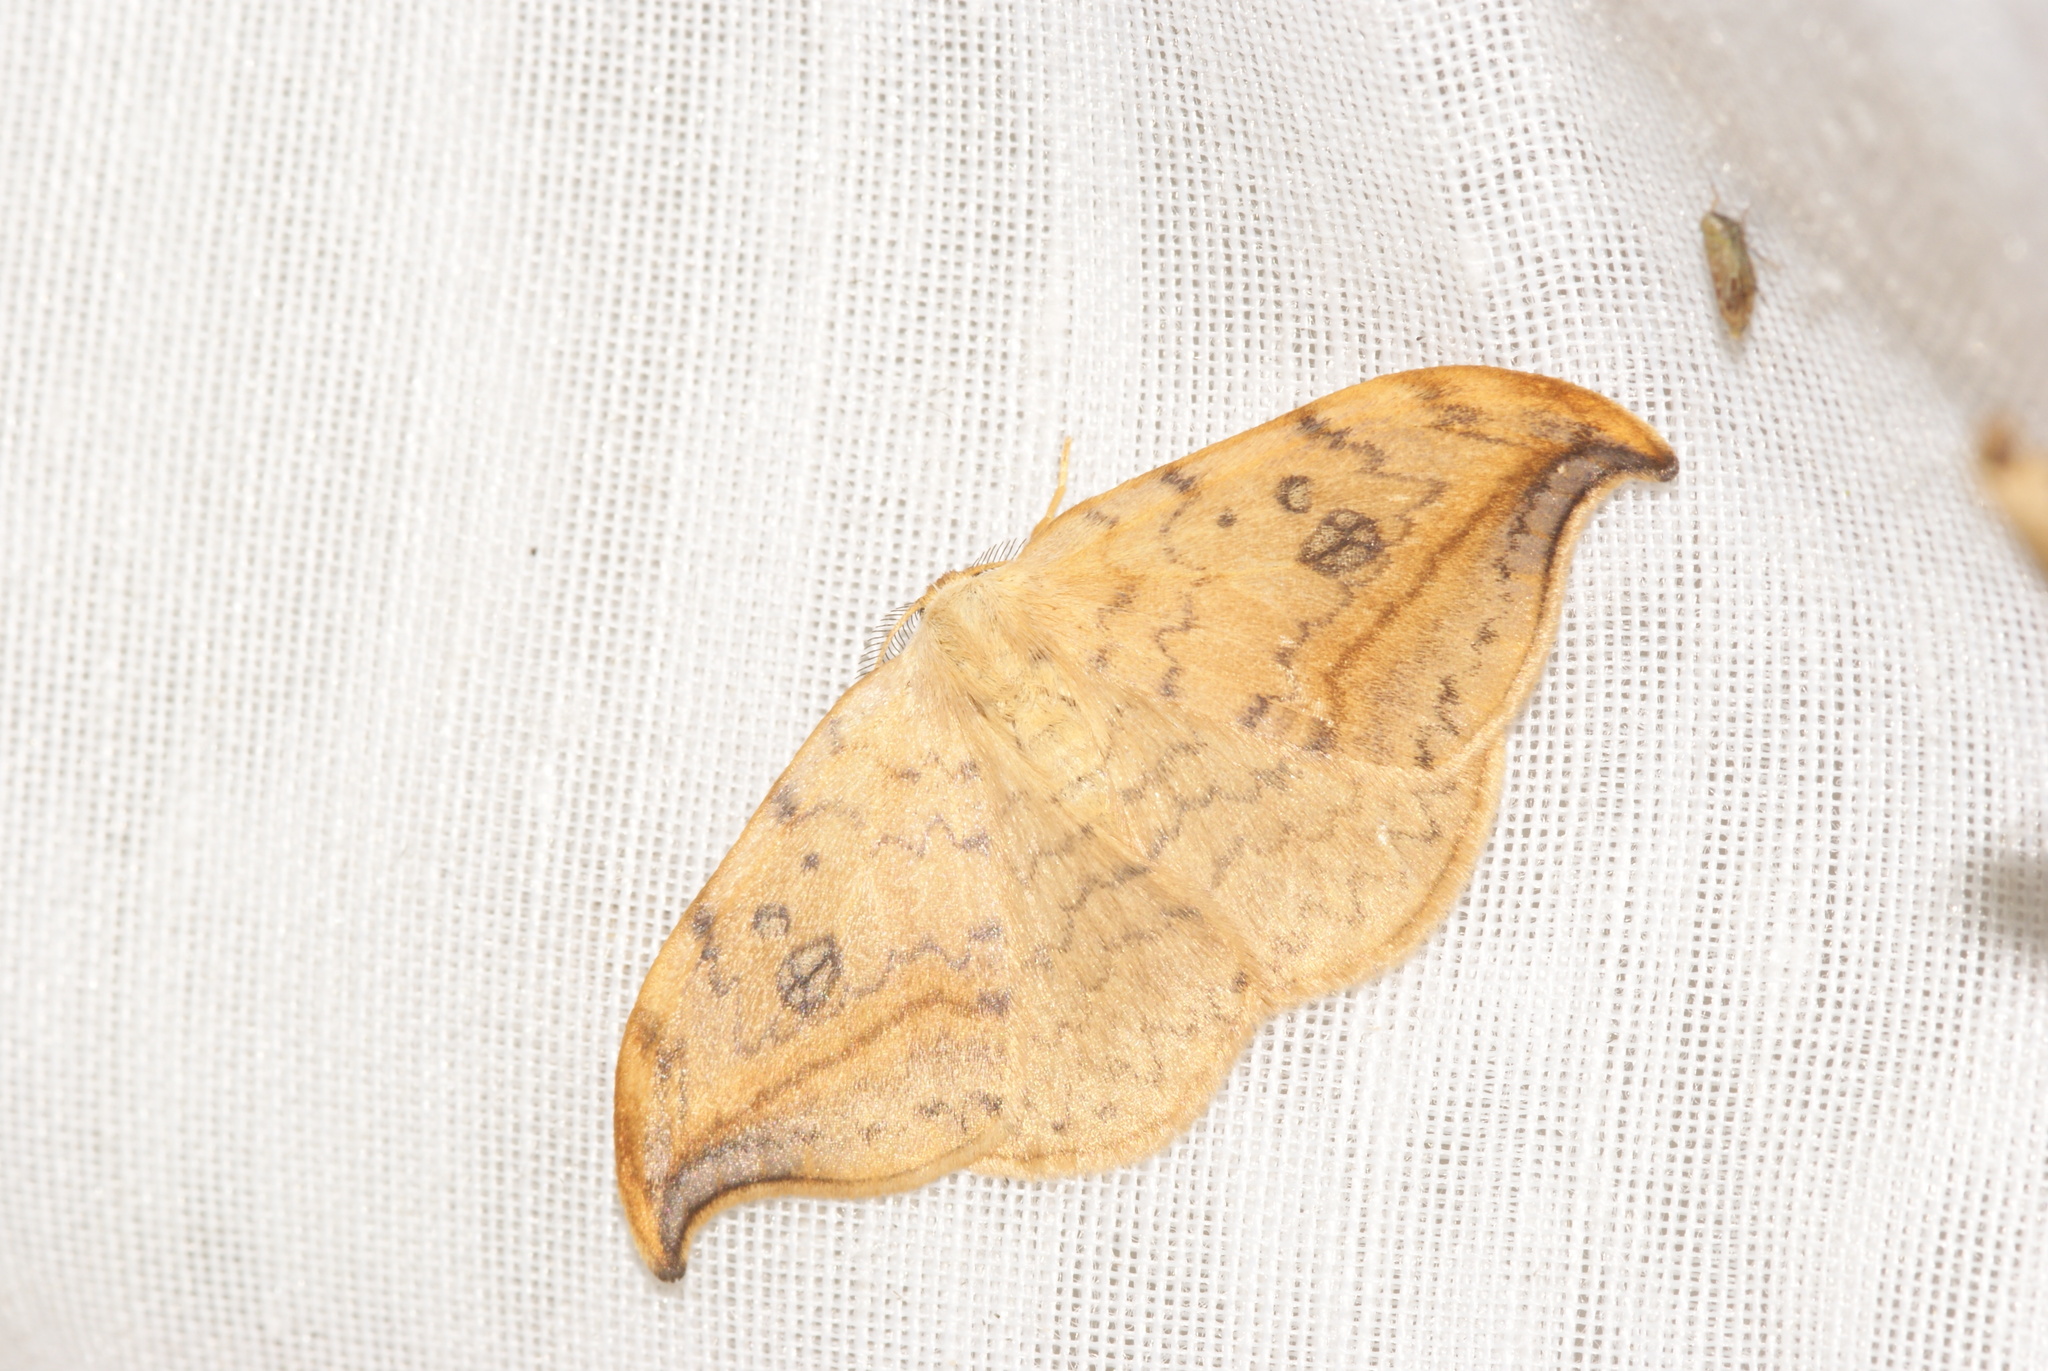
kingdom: Animalia
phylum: Arthropoda
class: Insecta
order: Lepidoptera
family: Drepanidae
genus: Drepana
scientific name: Drepana falcataria
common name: Pebble hook-tip
